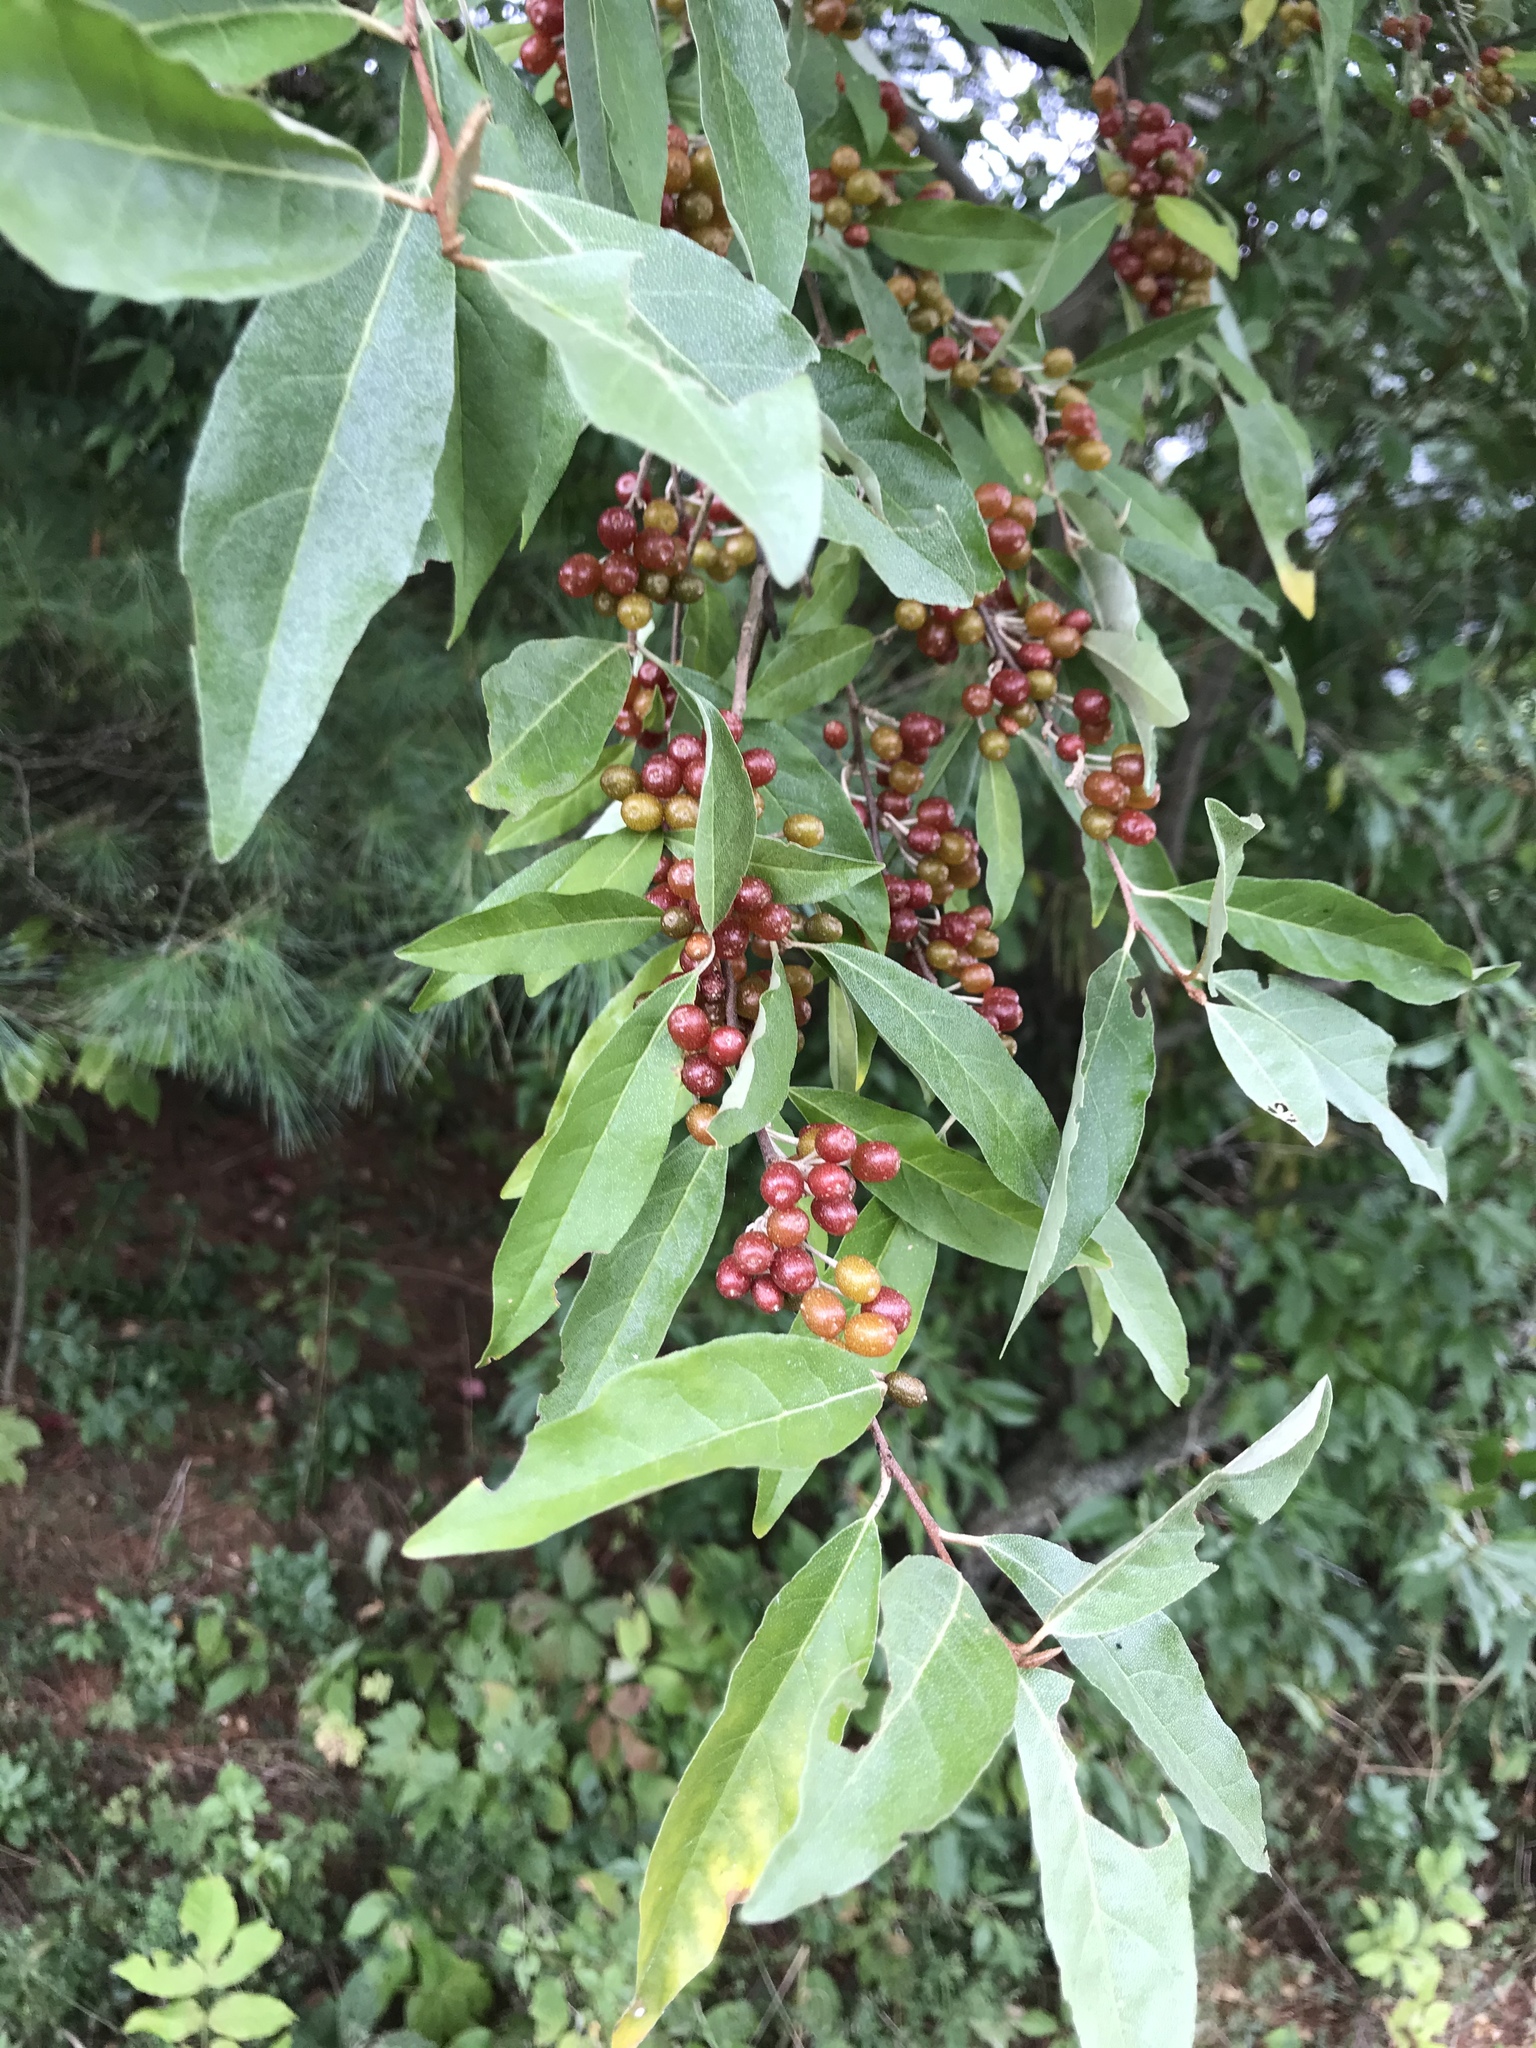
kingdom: Plantae
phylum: Tracheophyta
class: Magnoliopsida
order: Rosales
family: Elaeagnaceae
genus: Elaeagnus
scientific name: Elaeagnus umbellata
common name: Autumn olive
